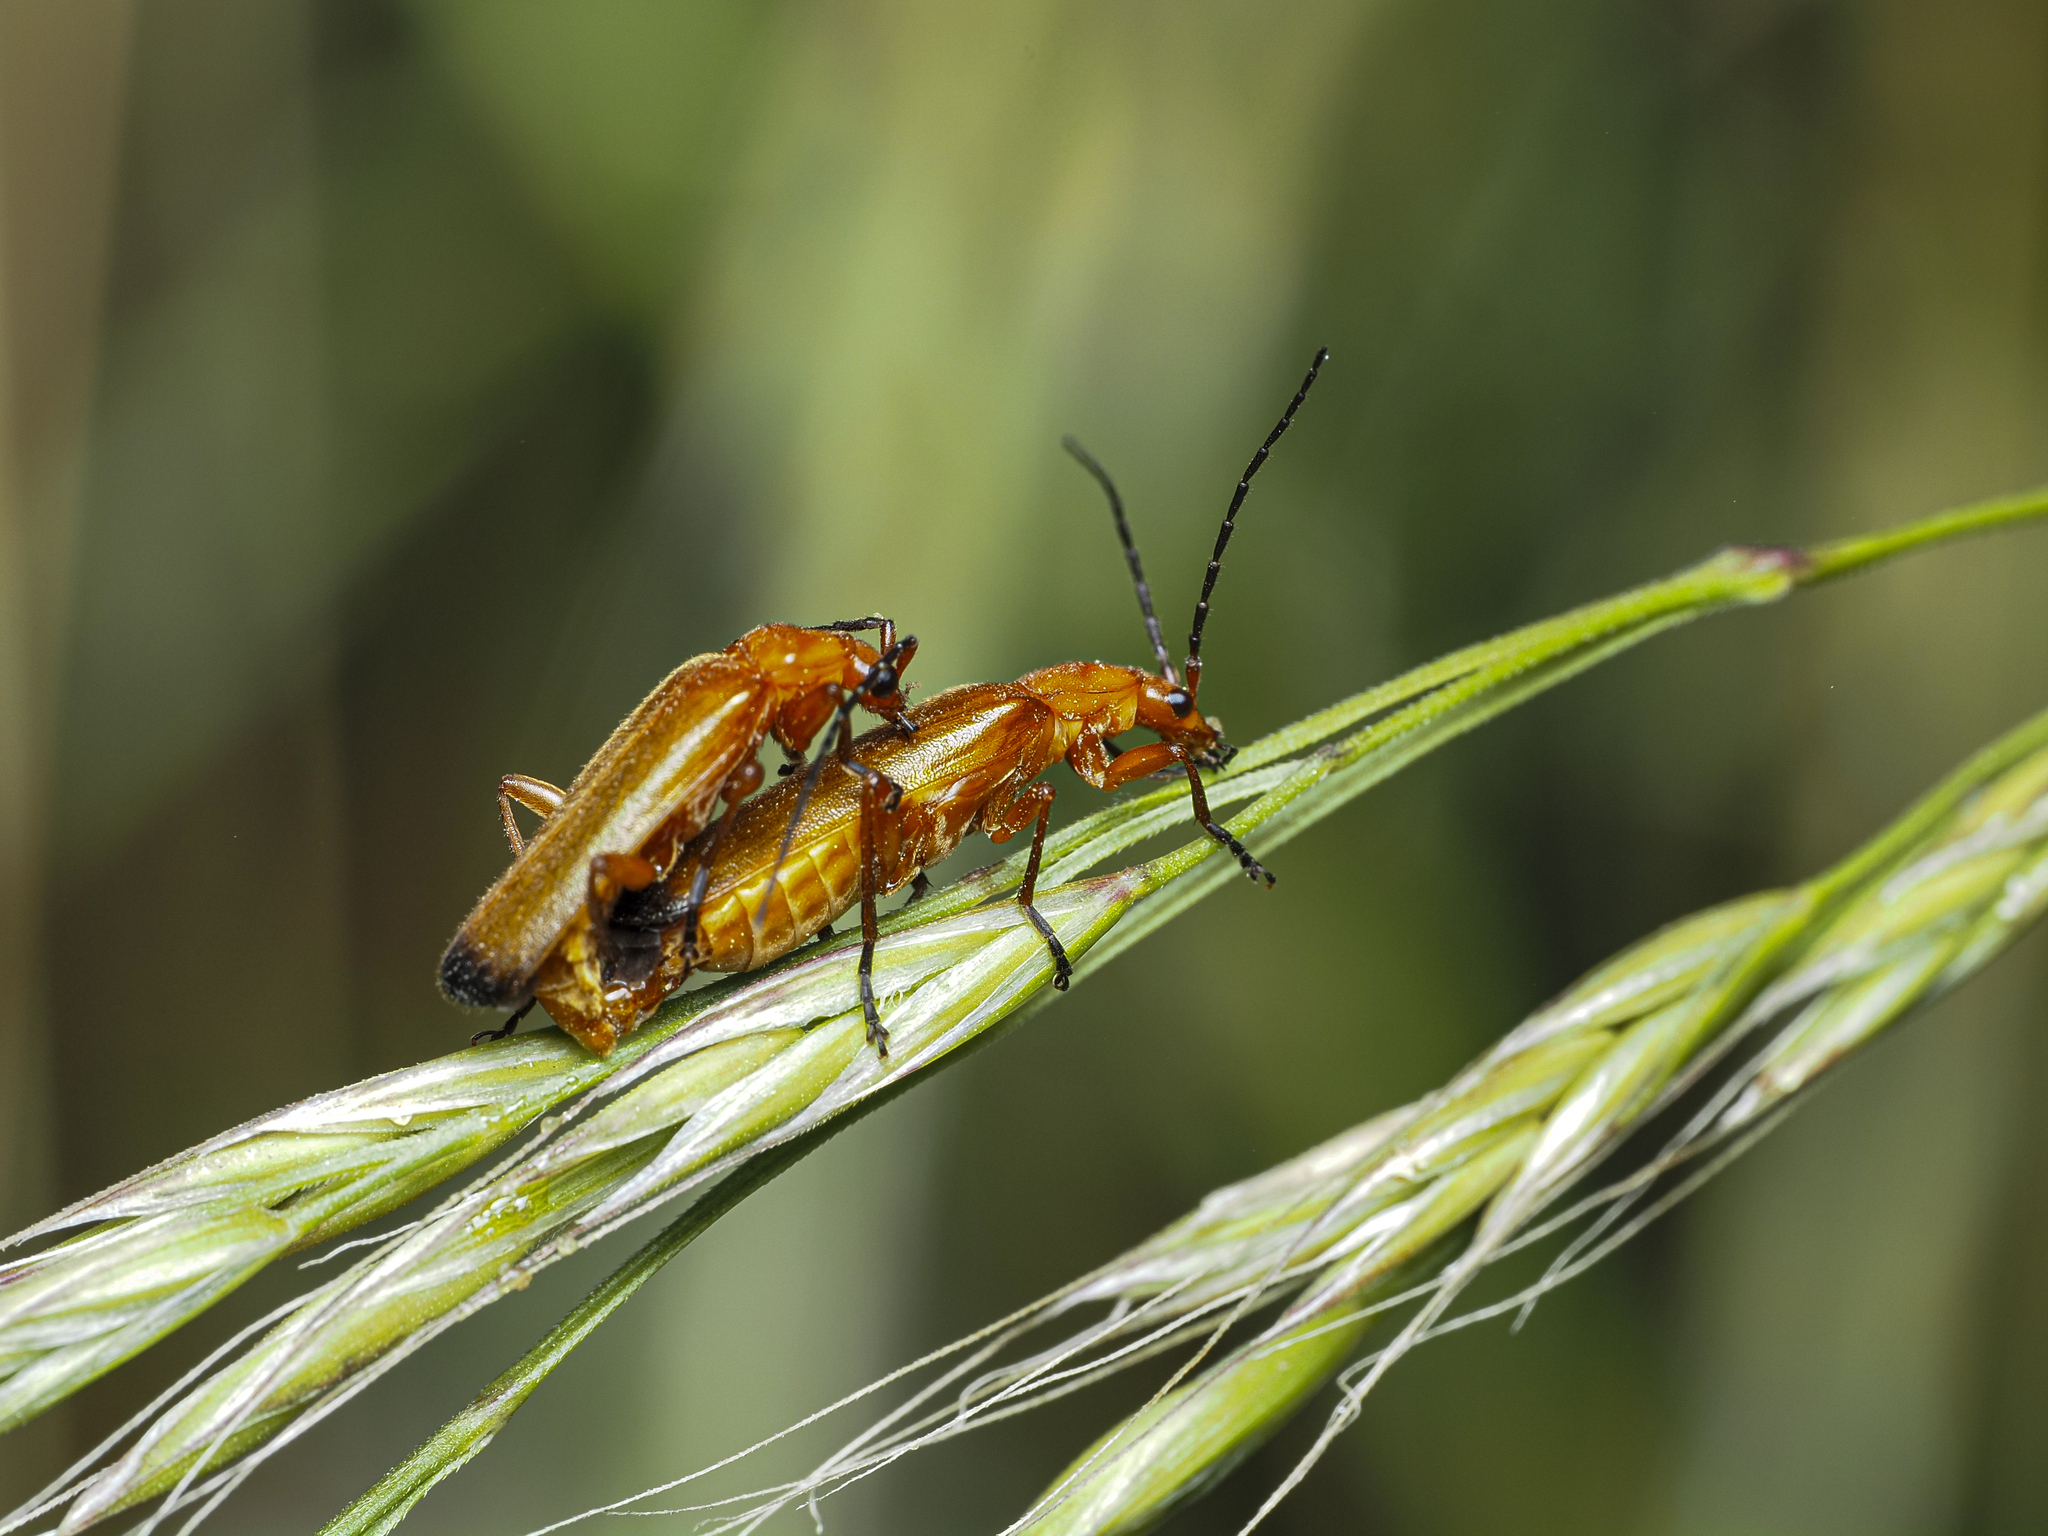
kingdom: Animalia
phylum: Arthropoda
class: Insecta
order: Coleoptera
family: Cantharidae
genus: Rhagonycha
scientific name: Rhagonycha fulva
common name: Common red soldier beetle
